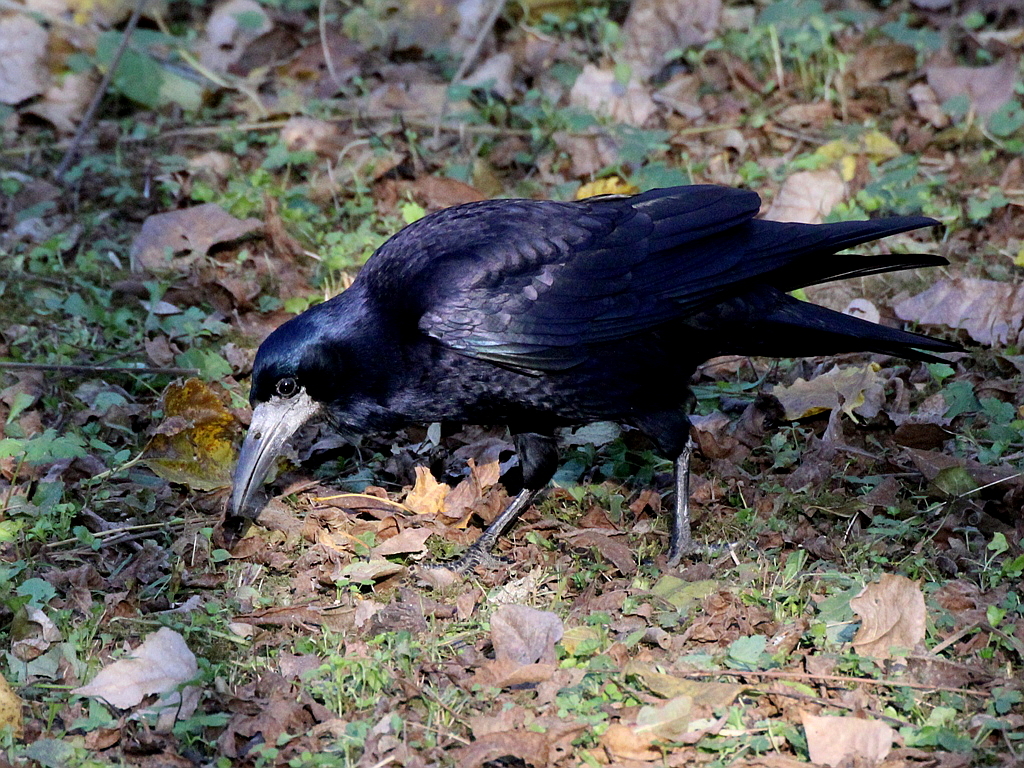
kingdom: Animalia
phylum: Chordata
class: Aves
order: Passeriformes
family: Corvidae
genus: Corvus
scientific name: Corvus frugilegus
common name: Rook
